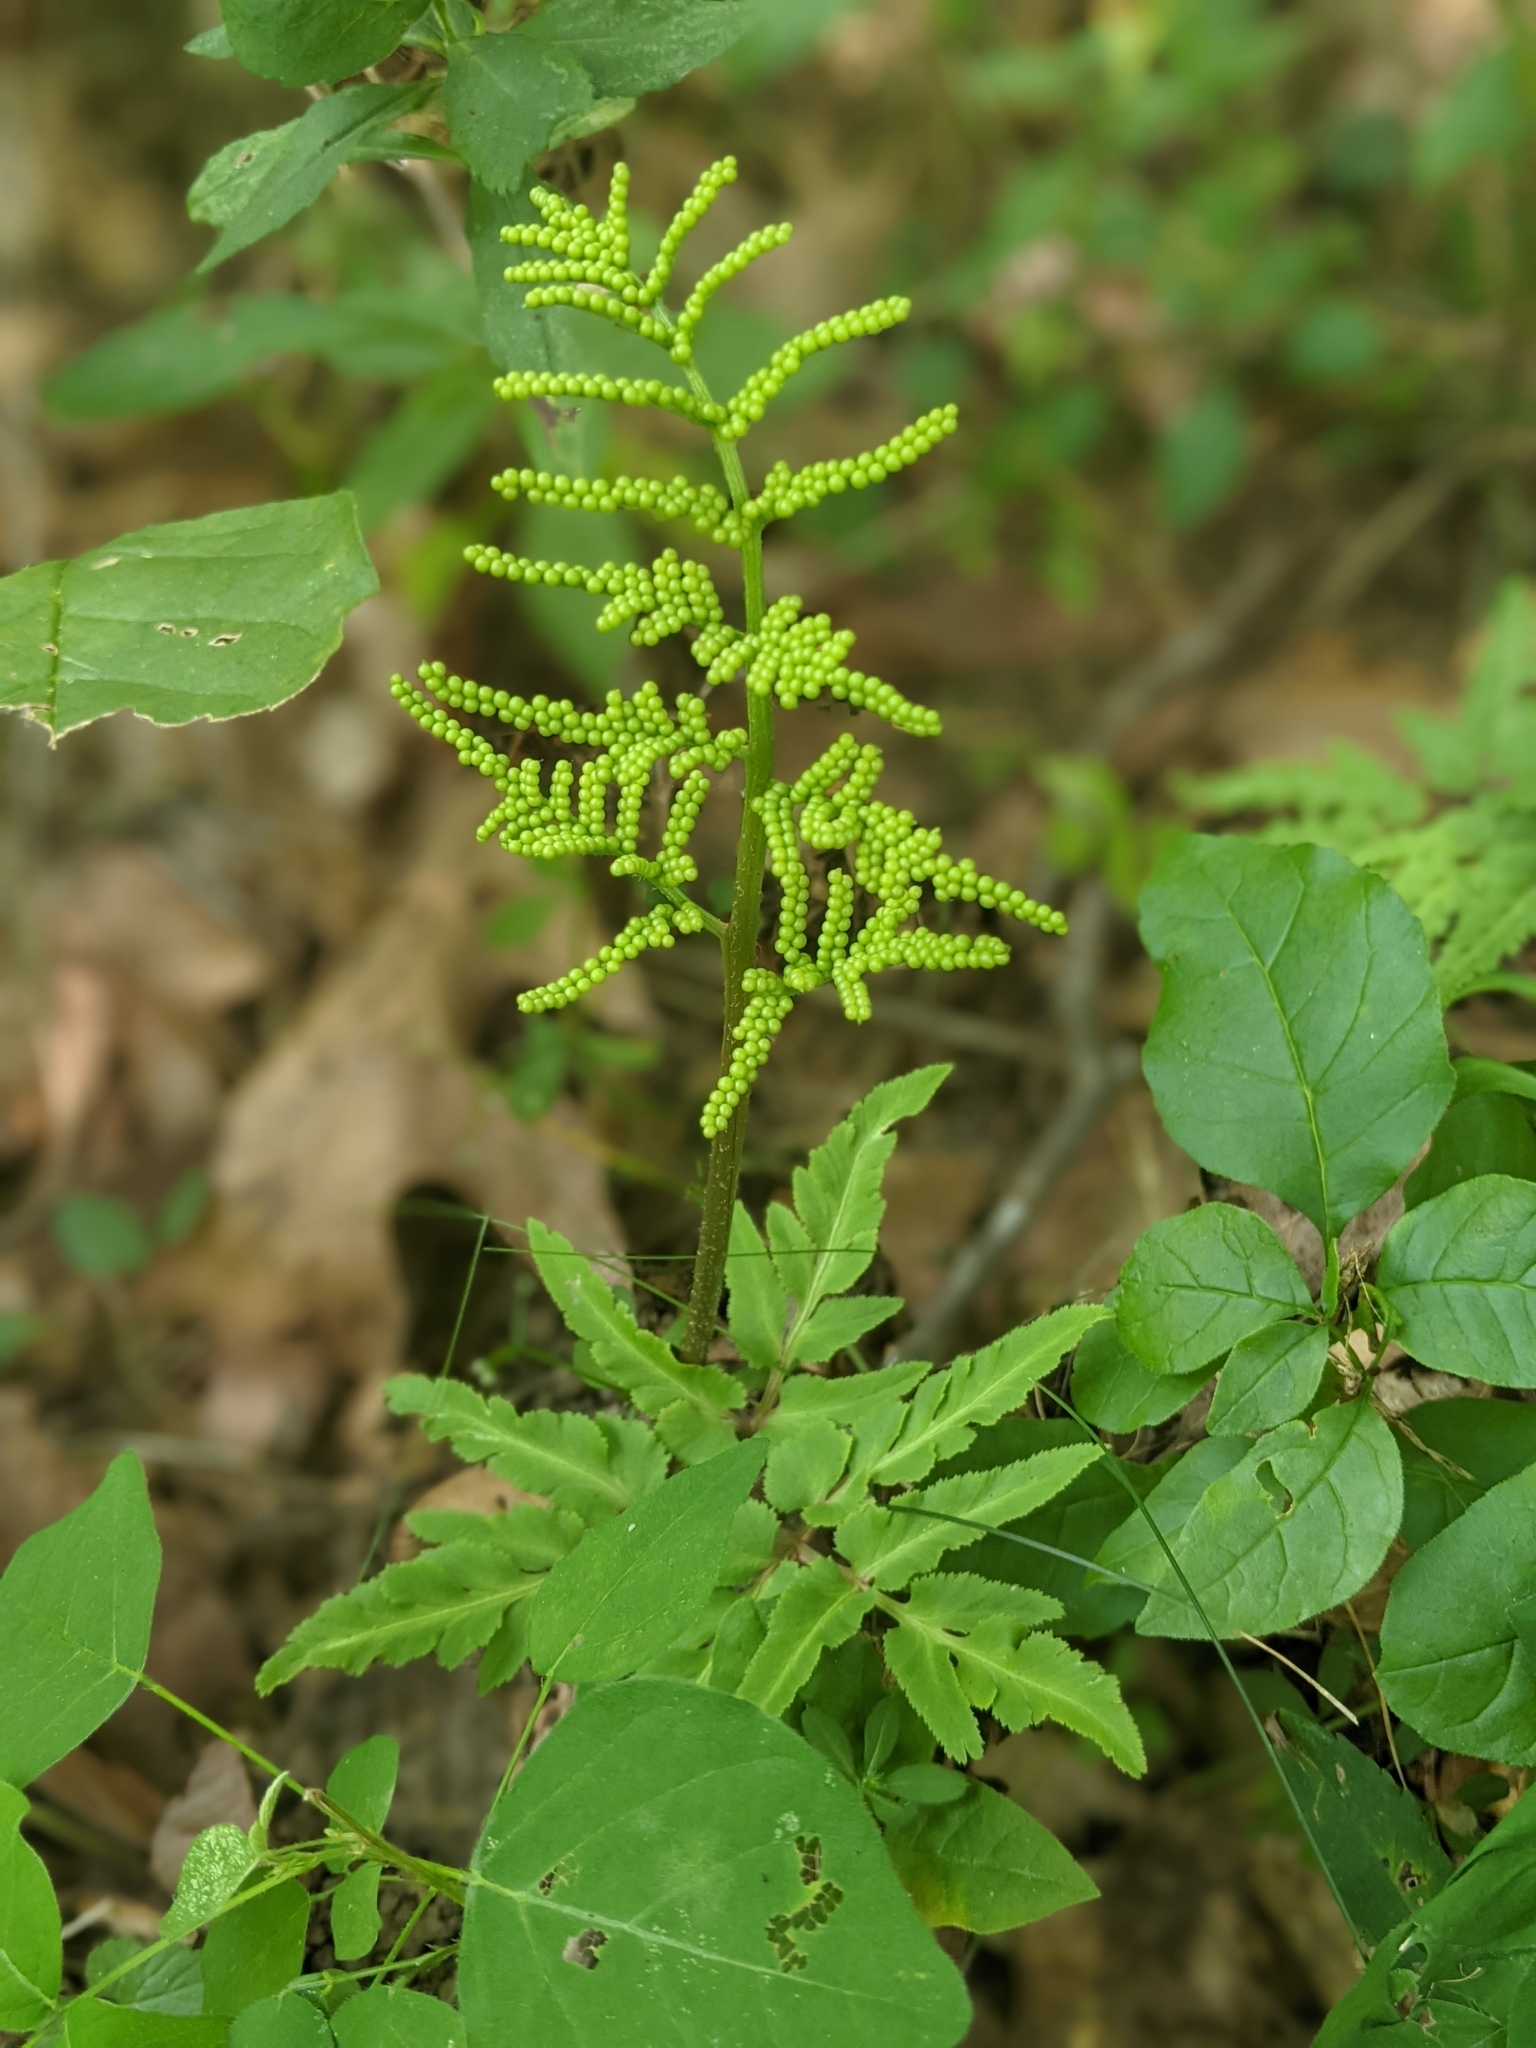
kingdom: Plantae
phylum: Tracheophyta
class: Polypodiopsida
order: Ophioglossales
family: Ophioglossaceae
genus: Sceptridium
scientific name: Sceptridium dissectum
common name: Cut-leaved grapefern
